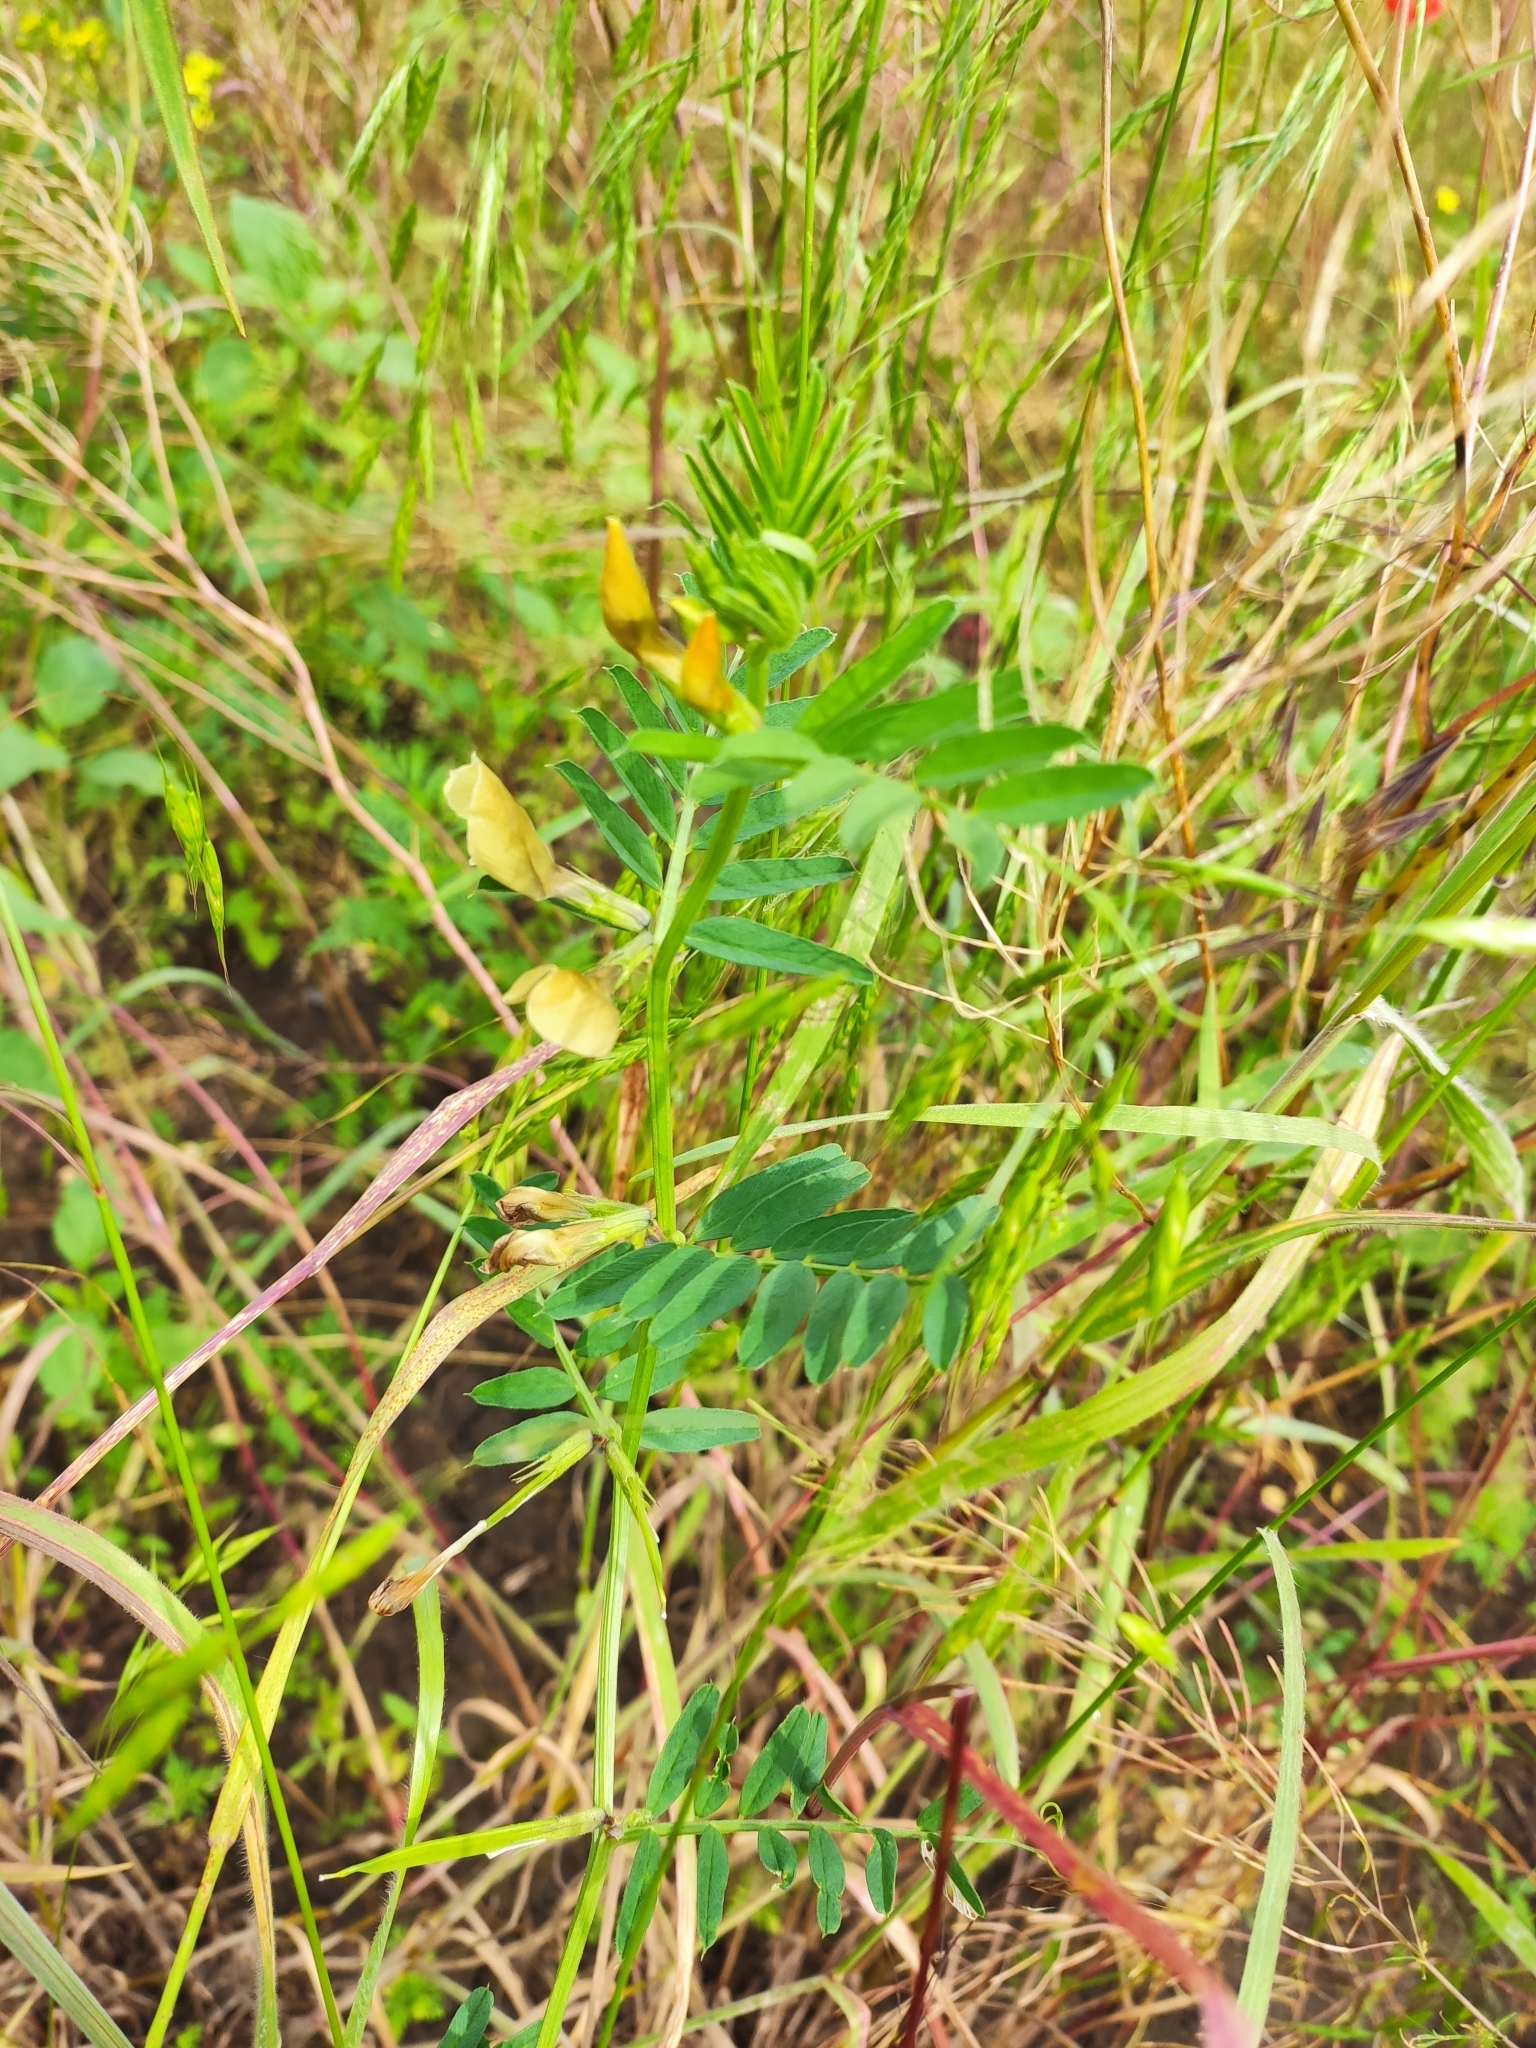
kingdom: Plantae
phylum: Tracheophyta
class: Magnoliopsida
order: Fabales
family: Fabaceae
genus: Vicia
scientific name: Vicia grandiflora
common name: Large yellow vetch
